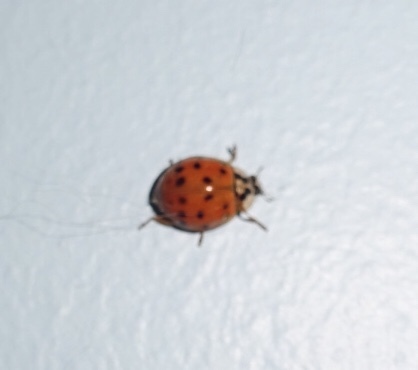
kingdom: Animalia
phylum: Arthropoda
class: Insecta
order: Coleoptera
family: Coccinellidae
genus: Harmonia
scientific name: Harmonia axyridis
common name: Harlequin ladybird
